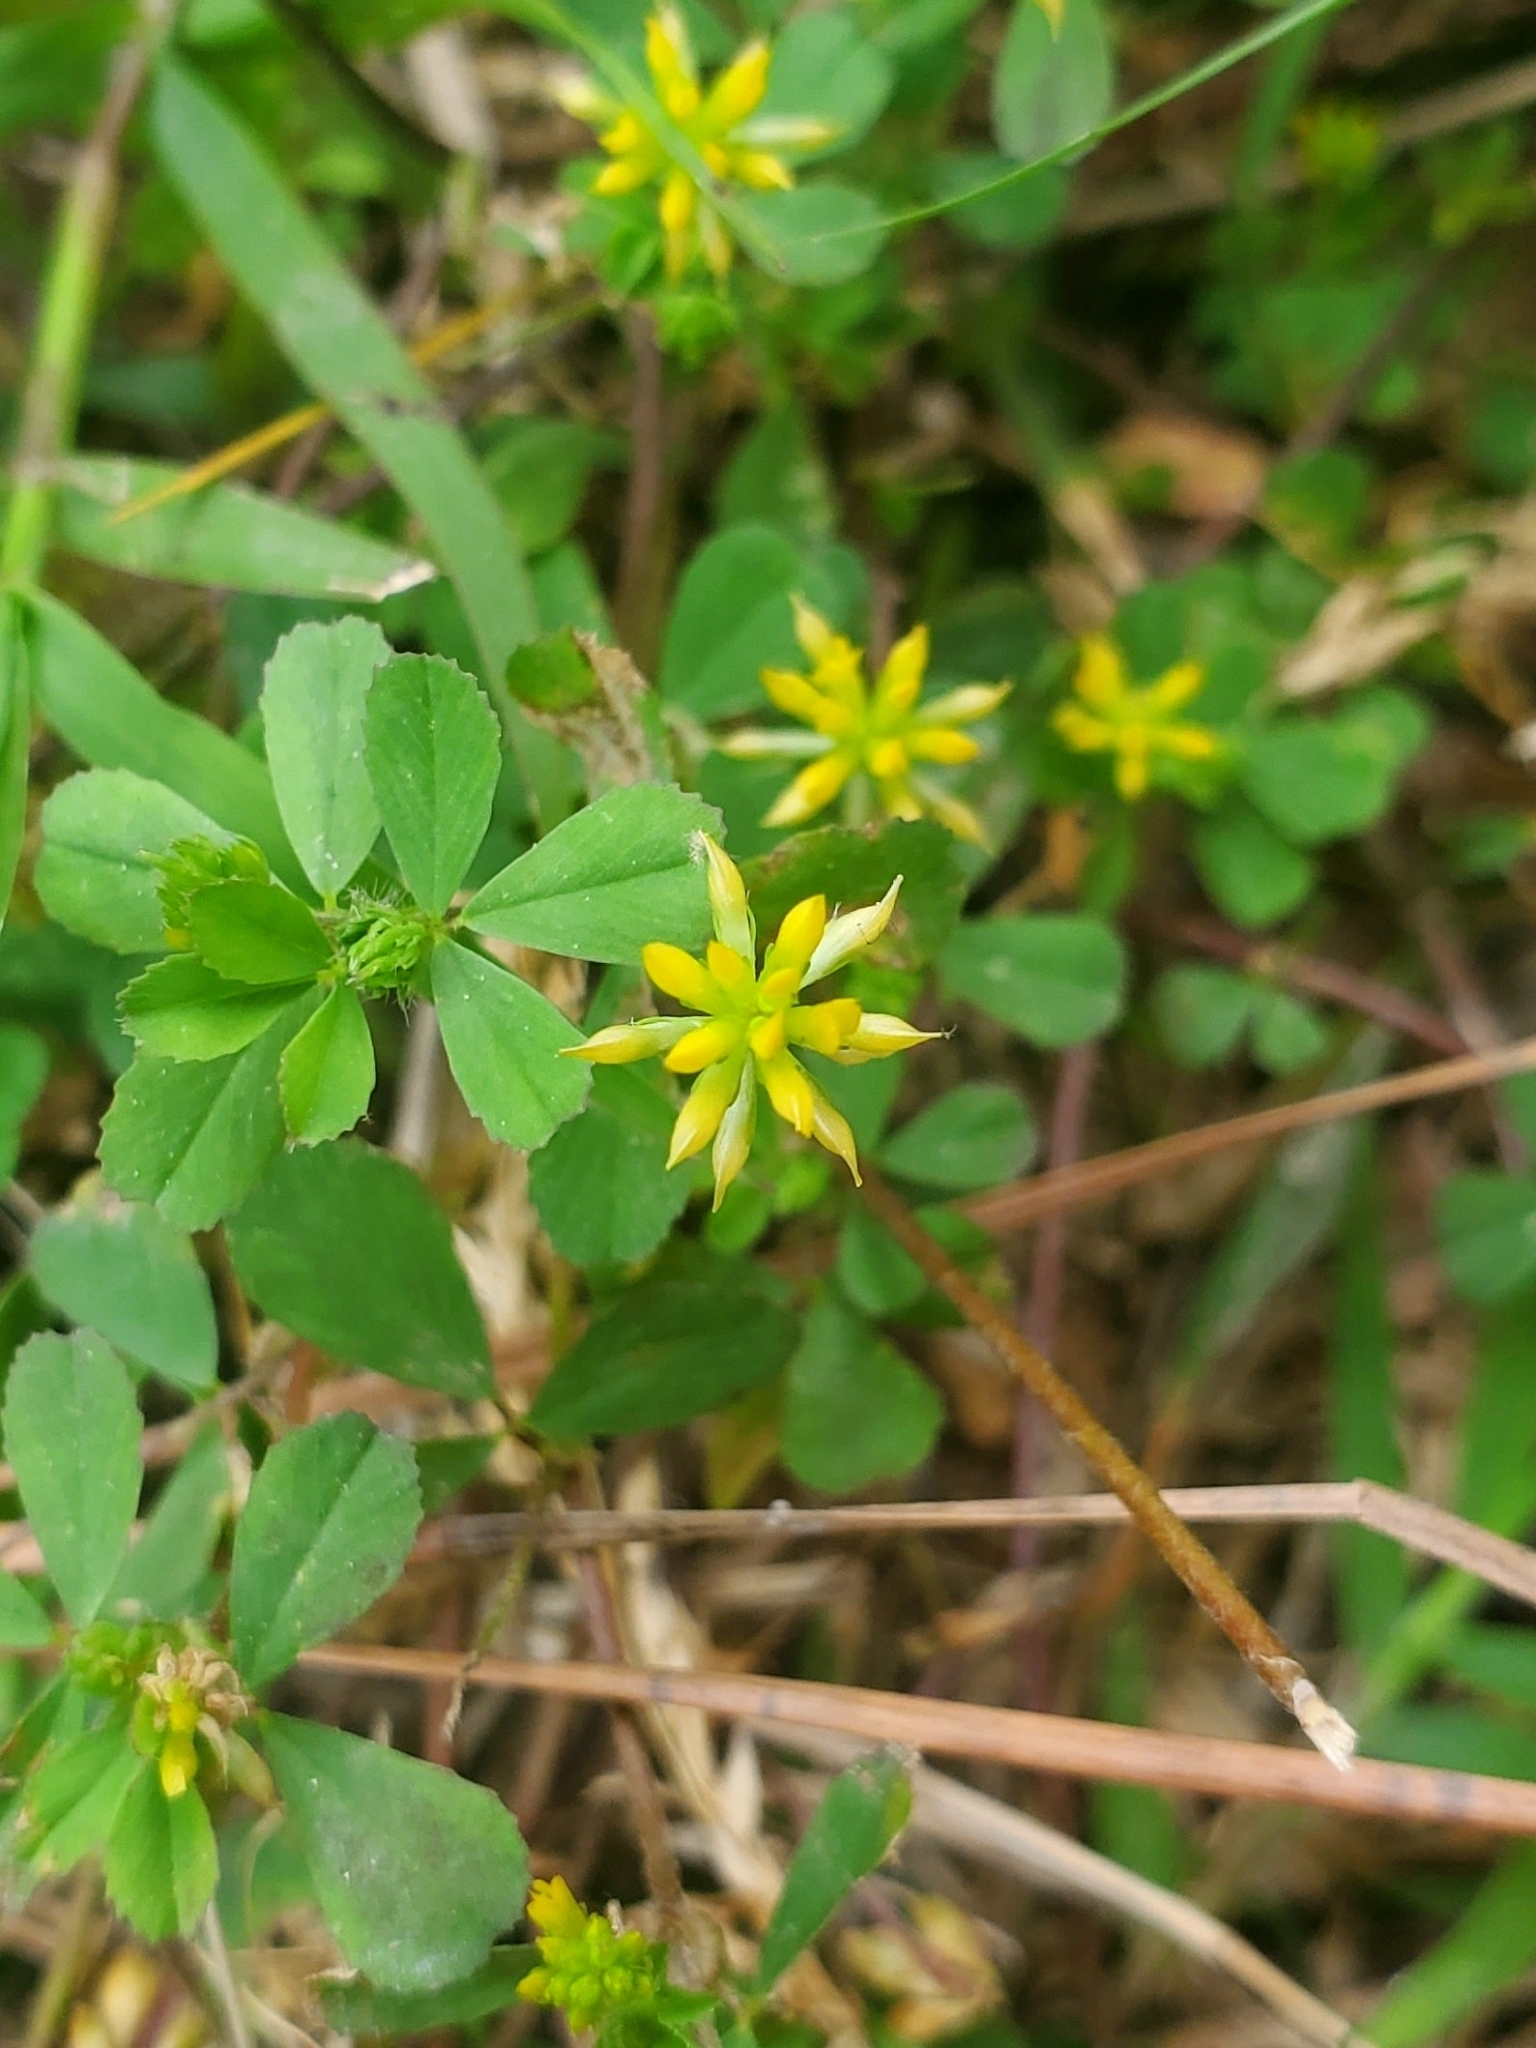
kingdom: Plantae
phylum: Tracheophyta
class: Magnoliopsida
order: Fabales
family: Fabaceae
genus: Trifolium
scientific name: Trifolium dubium
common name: Suckling clover
